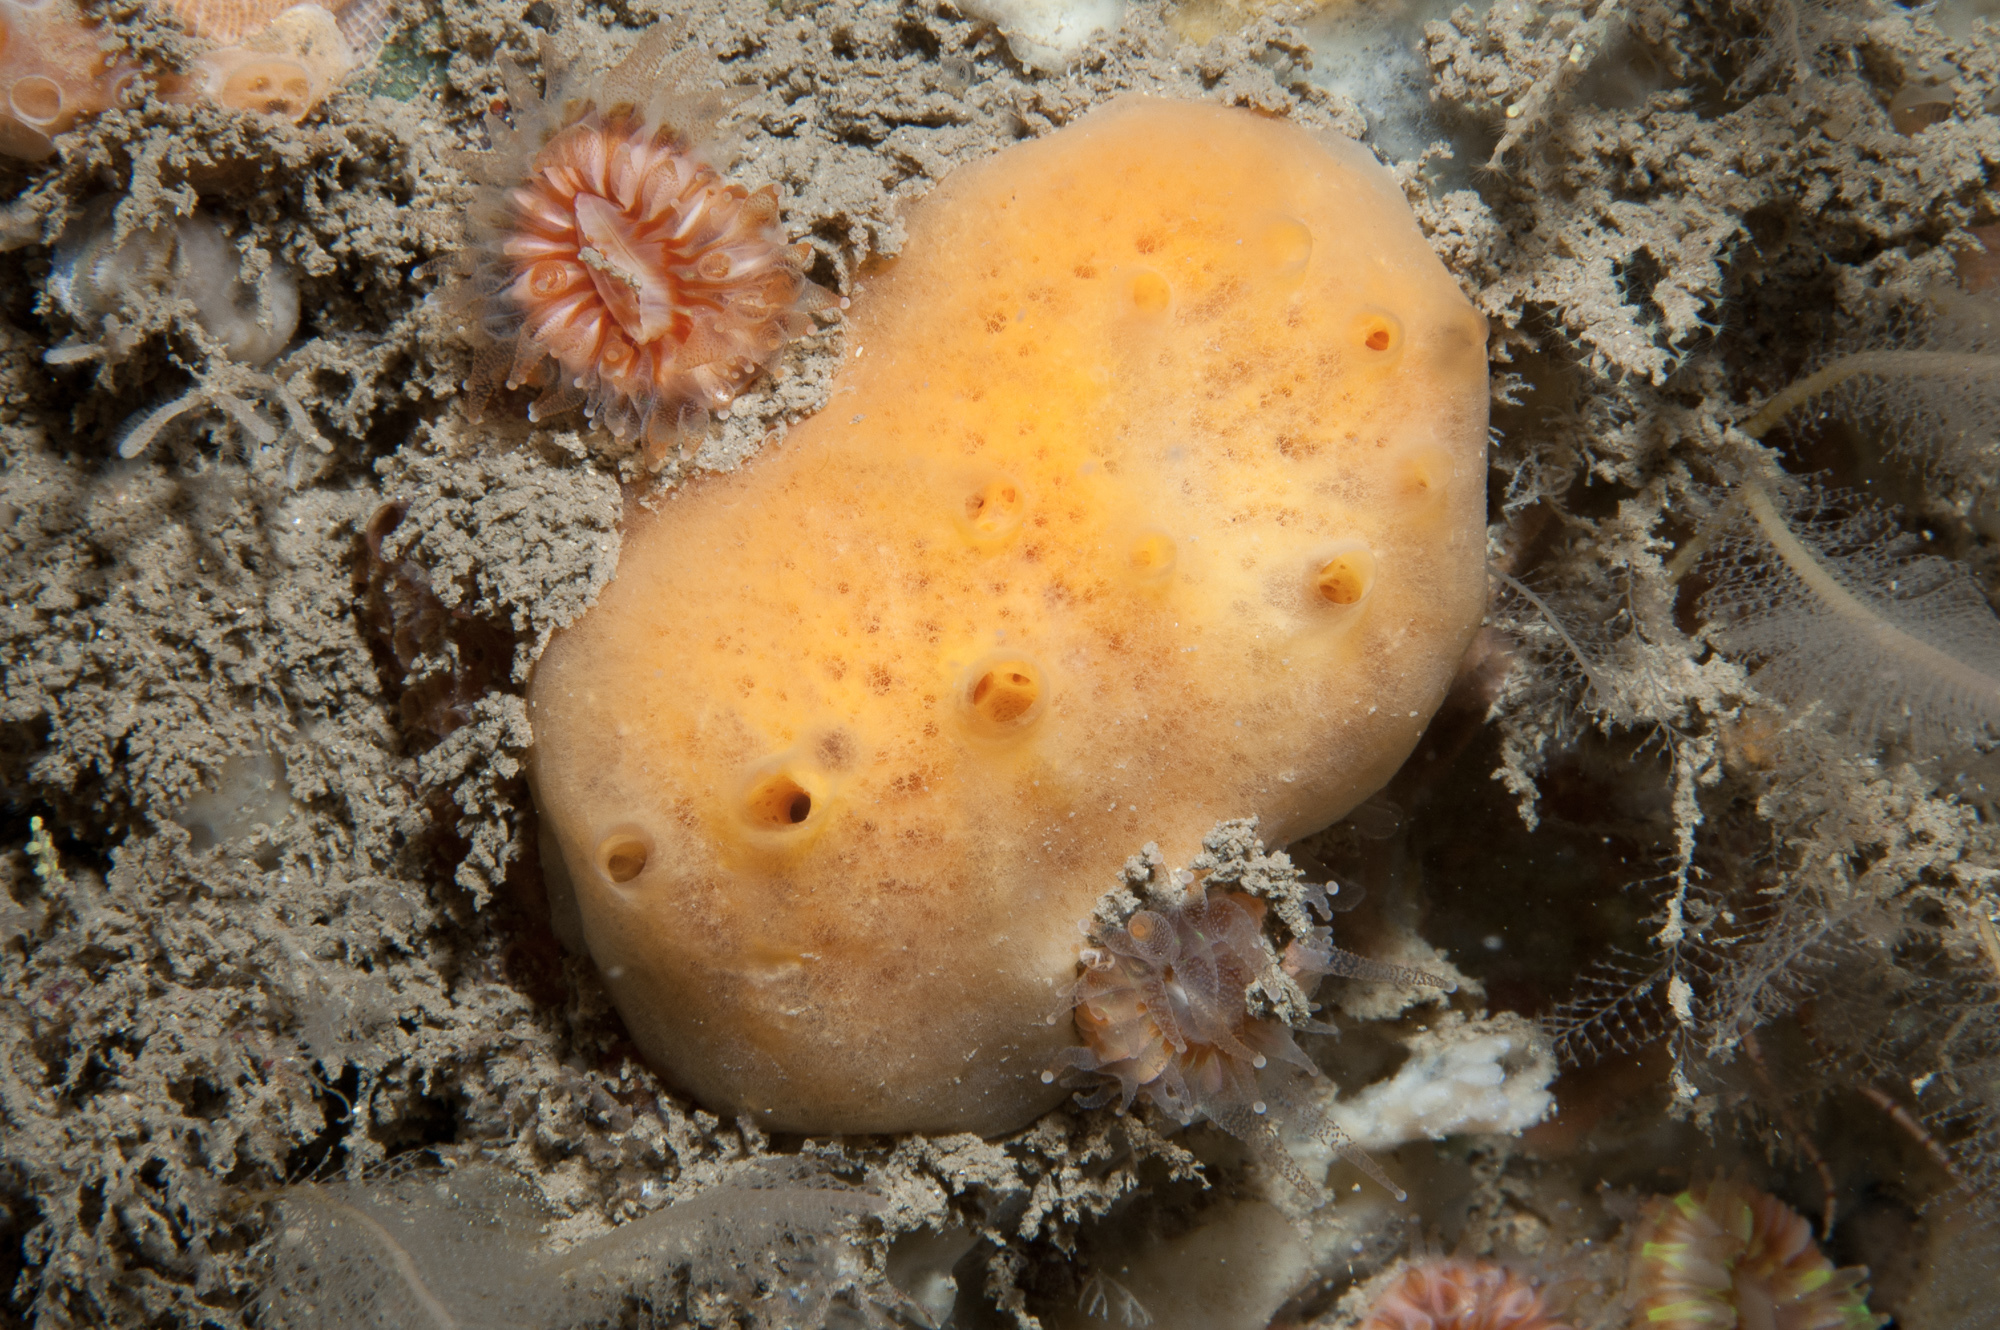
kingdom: Animalia
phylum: Porifera
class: Demospongiae
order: Poecilosclerida
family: Myxillidae
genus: Myxilla
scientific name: Myxilla fimbriata
